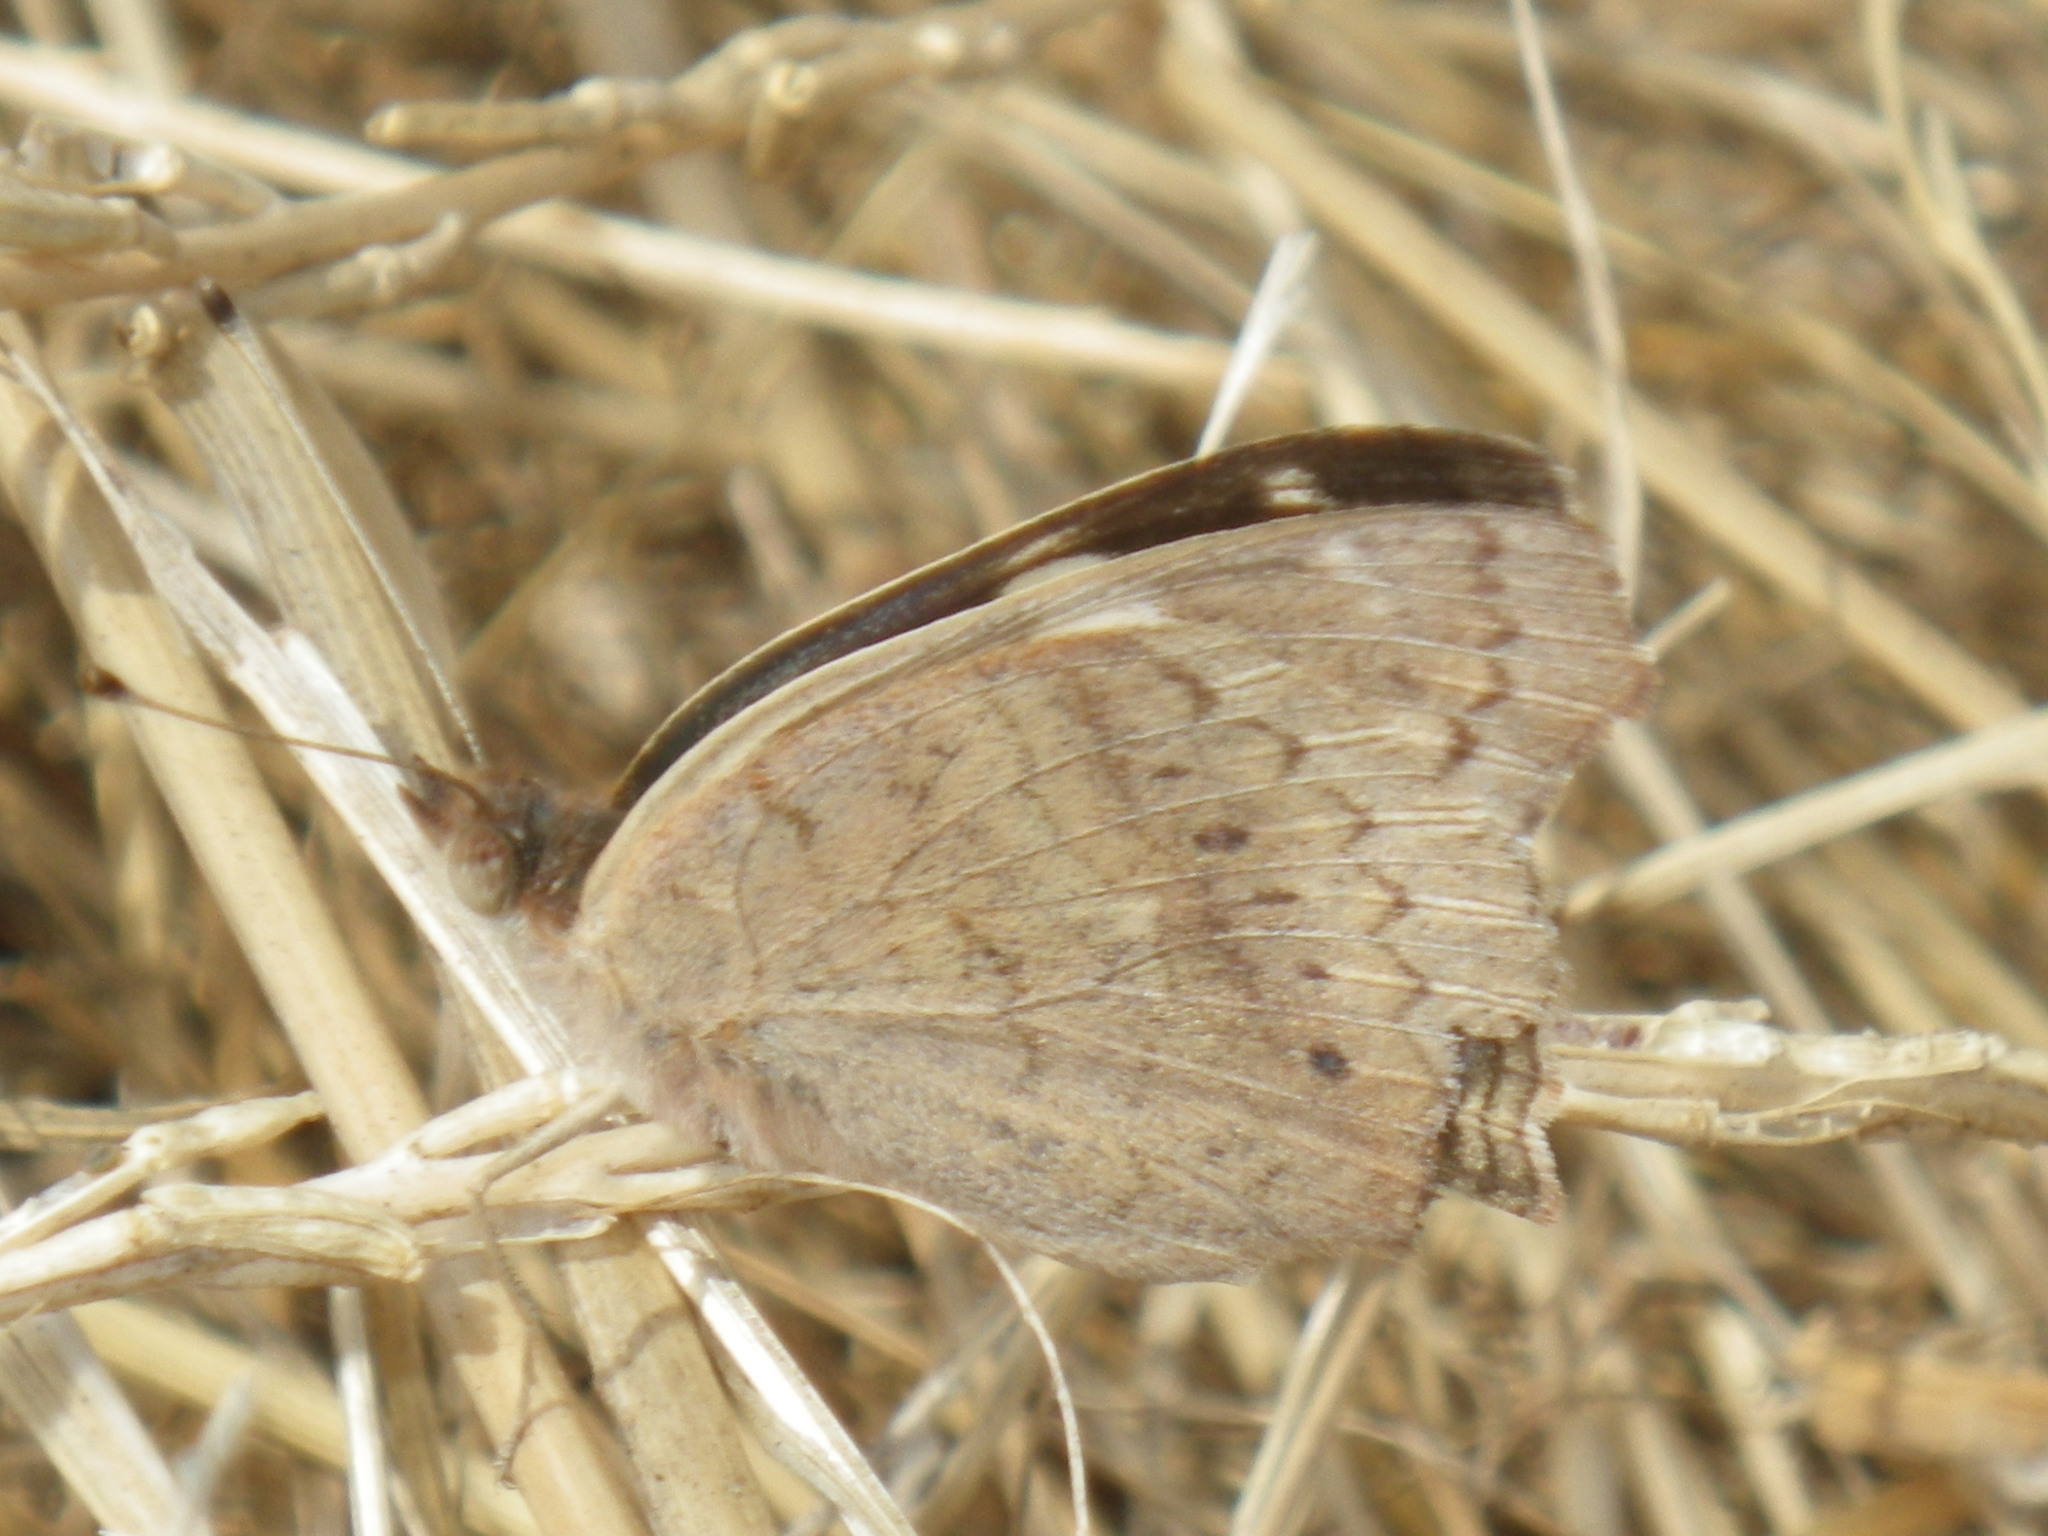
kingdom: Animalia
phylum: Arthropoda
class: Insecta
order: Lepidoptera
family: Nymphalidae
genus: Junonia
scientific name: Junonia grisea
